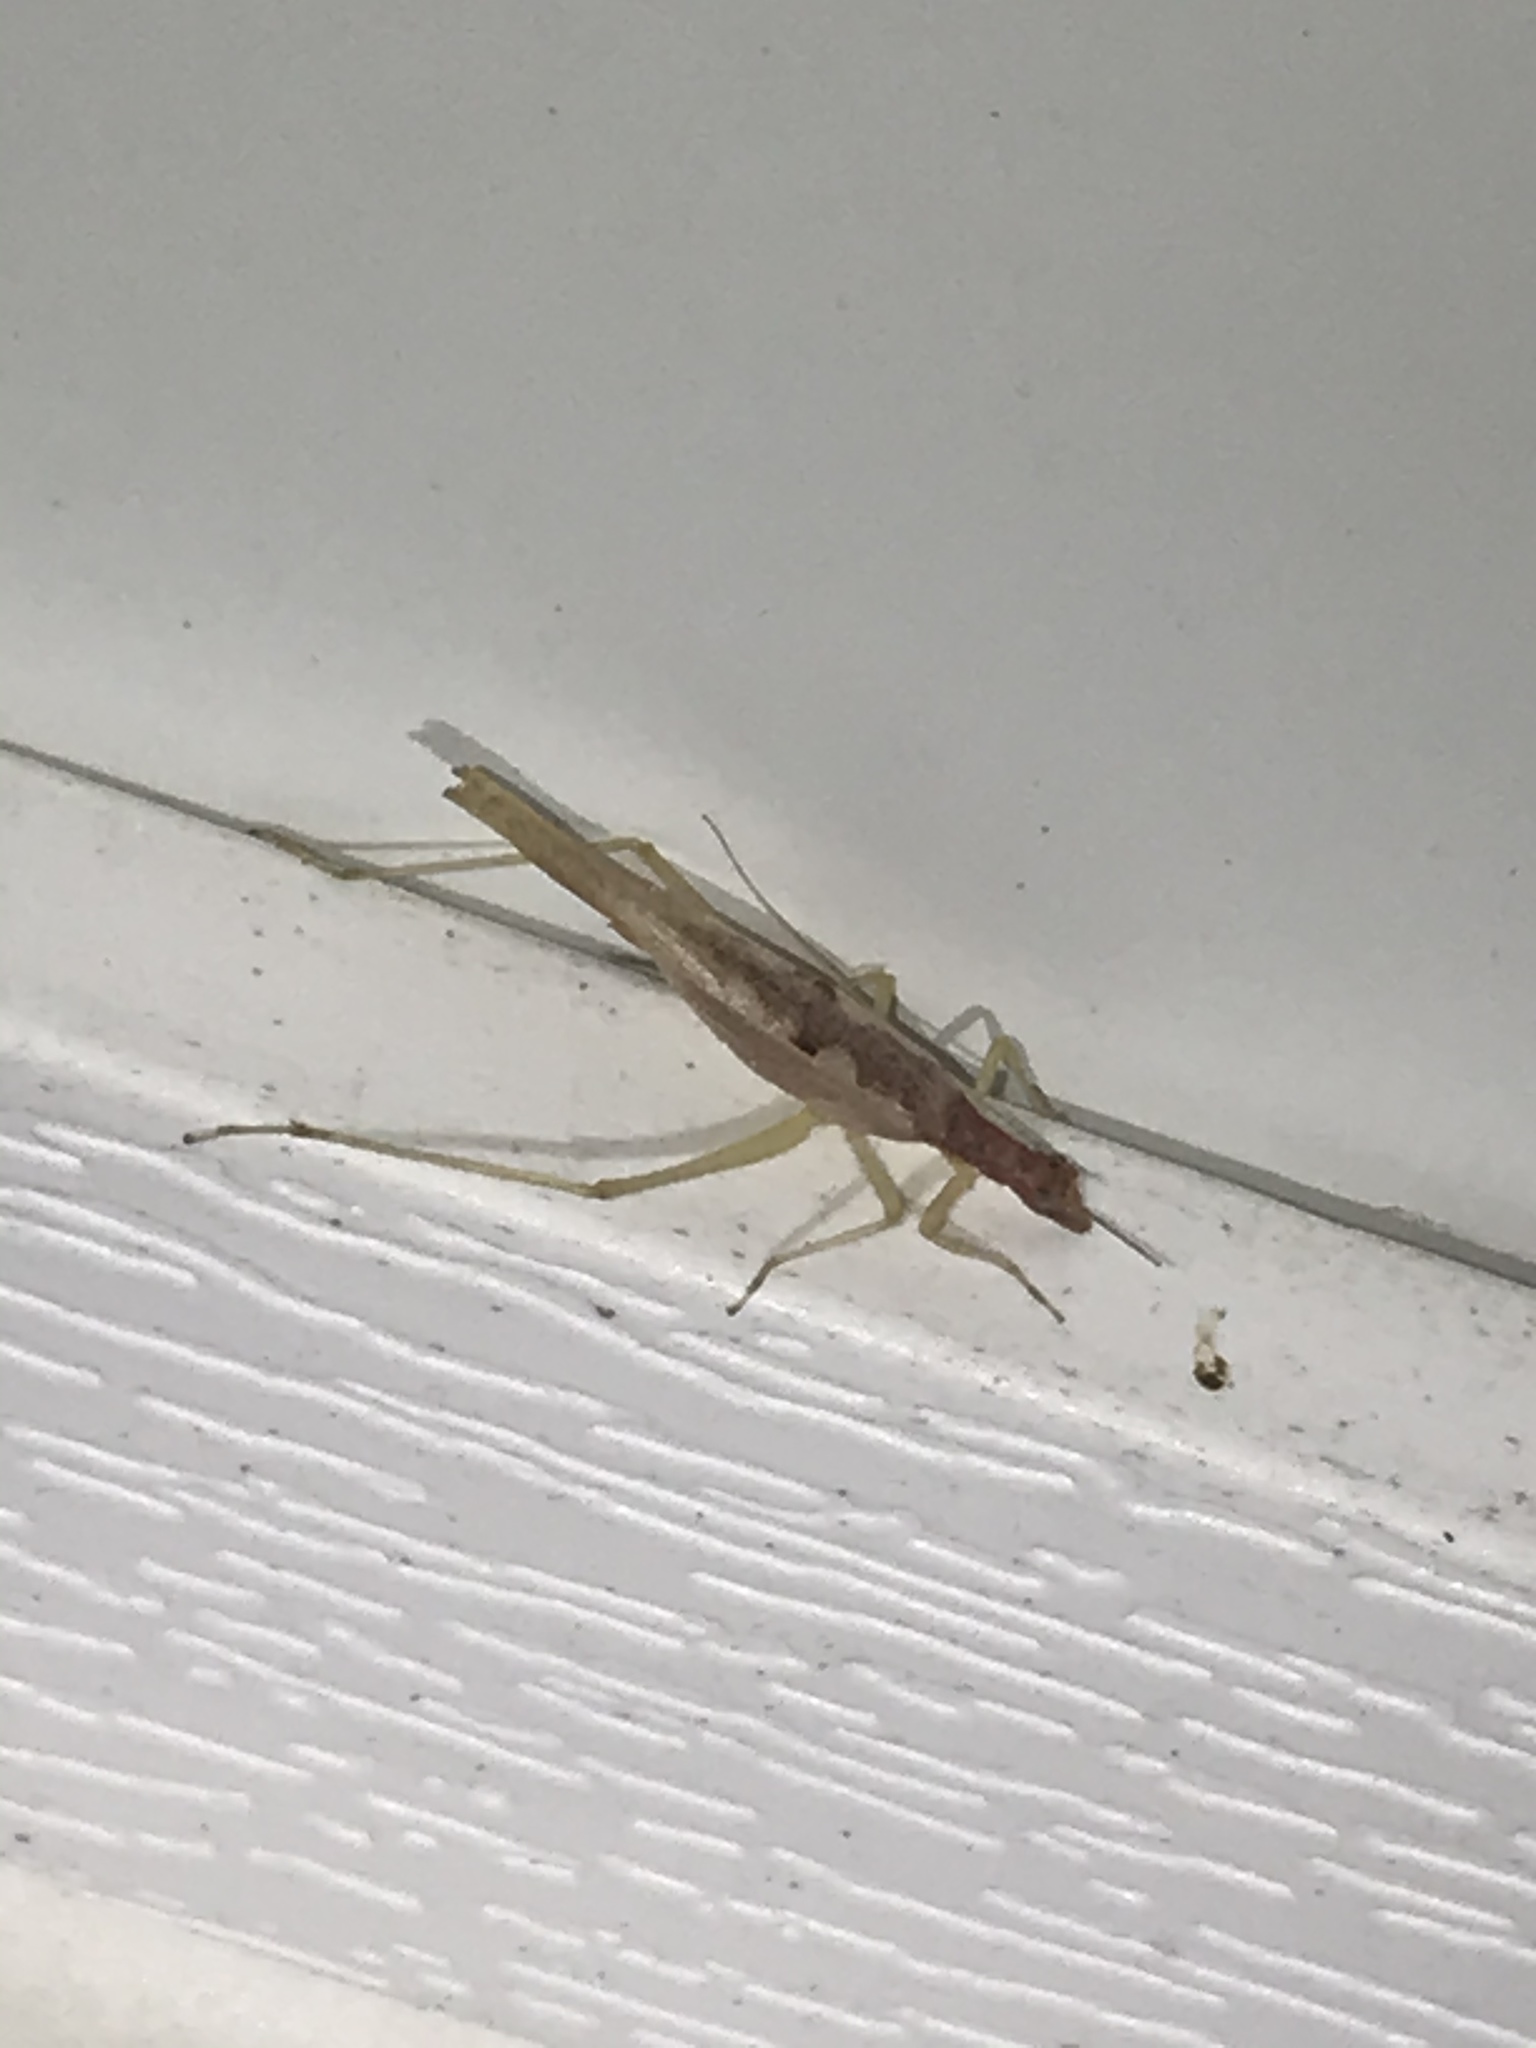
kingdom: Animalia
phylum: Arthropoda
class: Insecta
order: Orthoptera
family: Gryllidae
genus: Neoxabea
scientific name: Neoxabea bipunctata
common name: Two-spotted tree cricket
